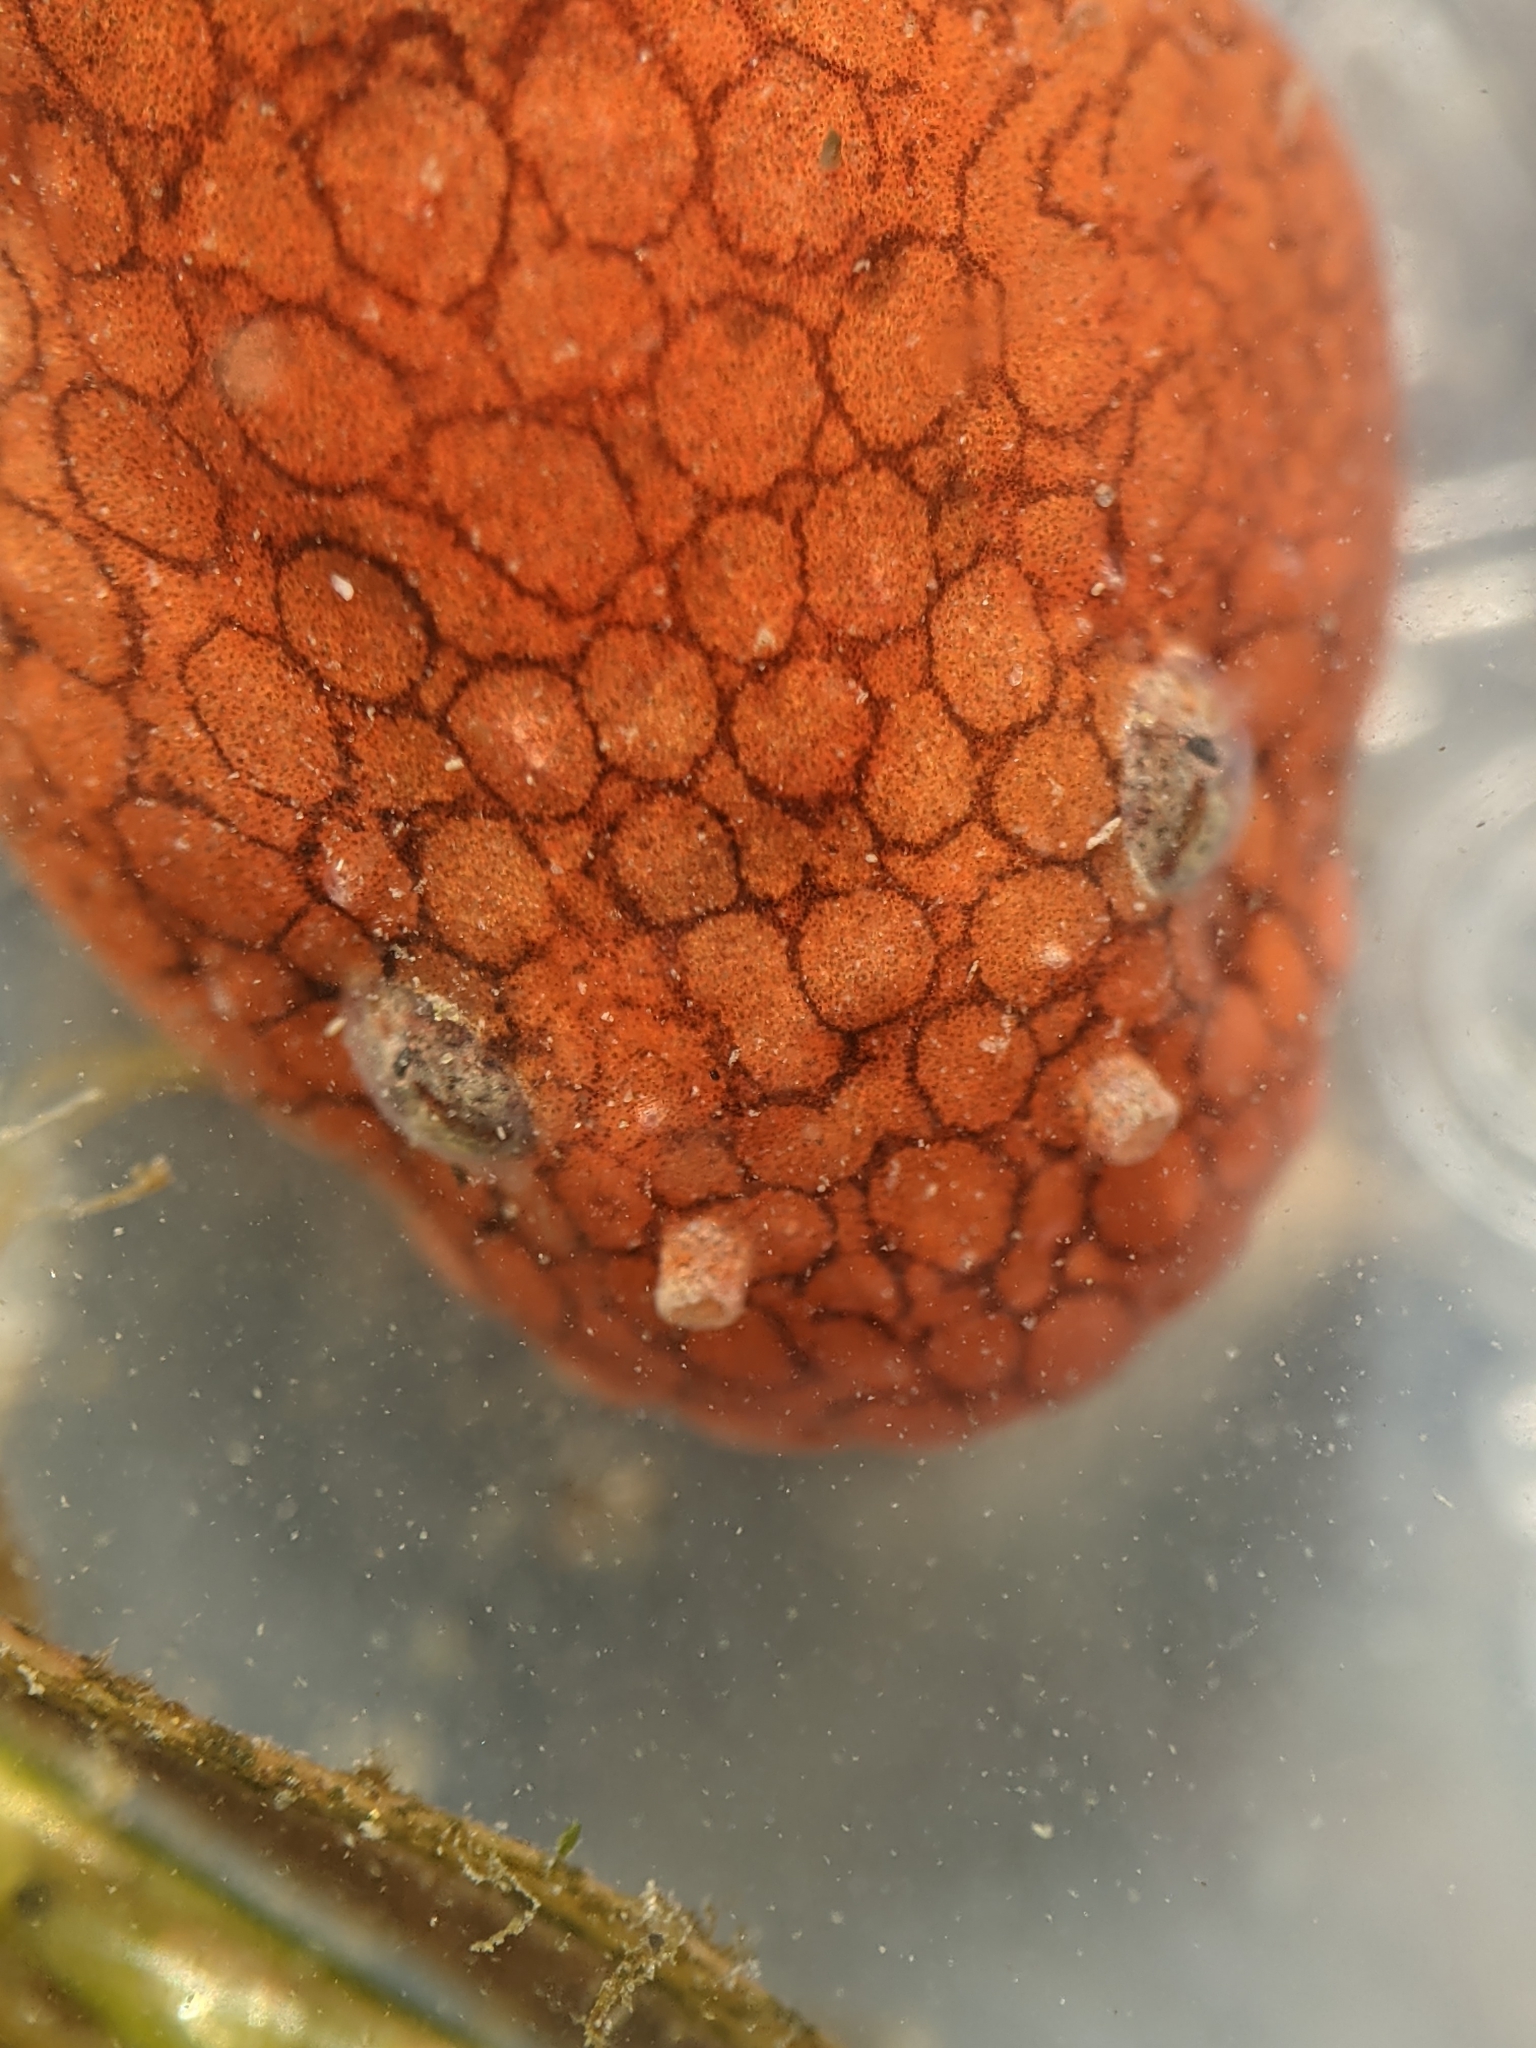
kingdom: Animalia
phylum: Chordata
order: Scorpaeniformes
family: Liparidae
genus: Liparis
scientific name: Liparis mucosus
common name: Slimy snailfish
